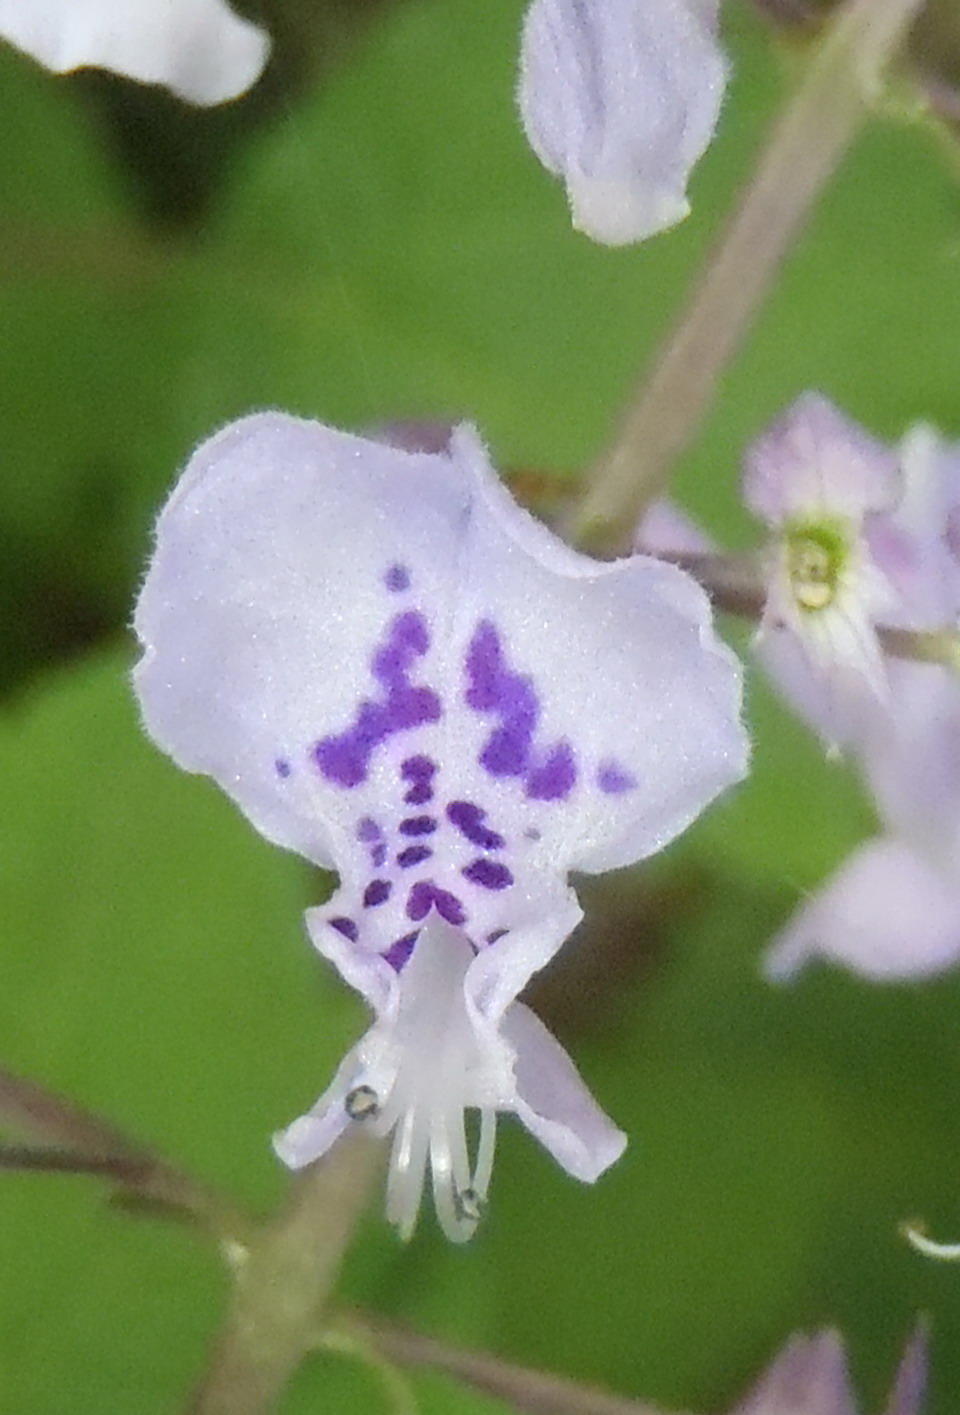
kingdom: Plantae
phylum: Tracheophyta
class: Magnoliopsida
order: Lamiales
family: Lamiaceae
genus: Plectranthus
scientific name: Plectranthus fruticosus
